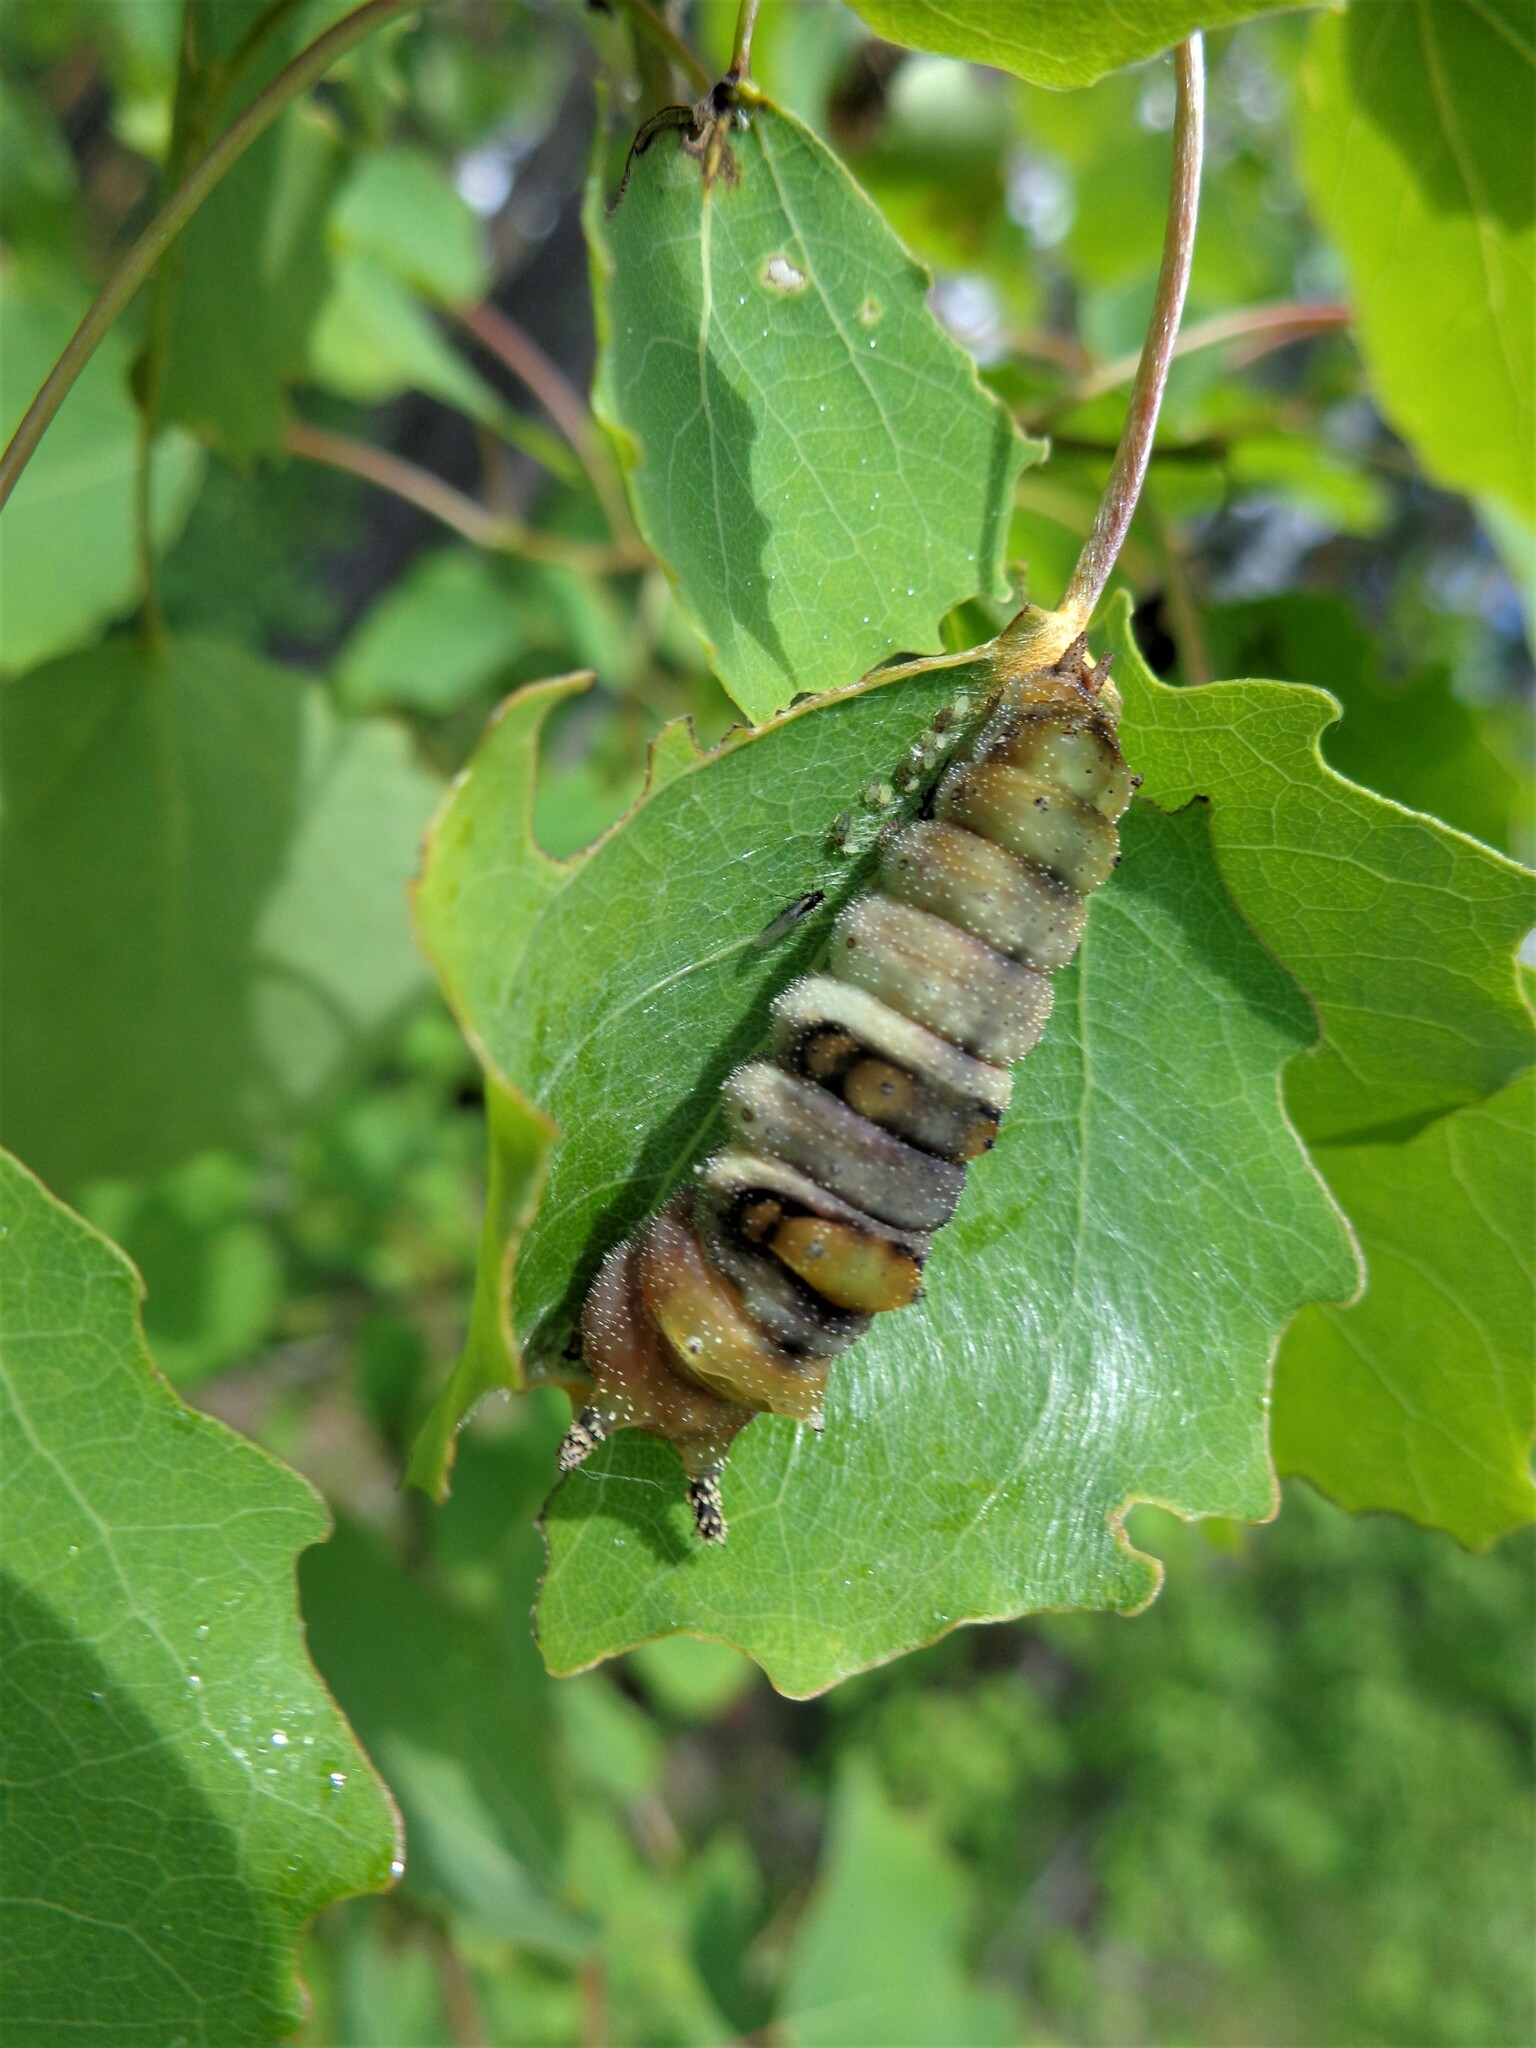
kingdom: Animalia
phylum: Arthropoda
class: Insecta
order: Lepidoptera
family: Nymphalidae
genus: Limenitis
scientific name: Limenitis populi
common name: Poplar admiral
